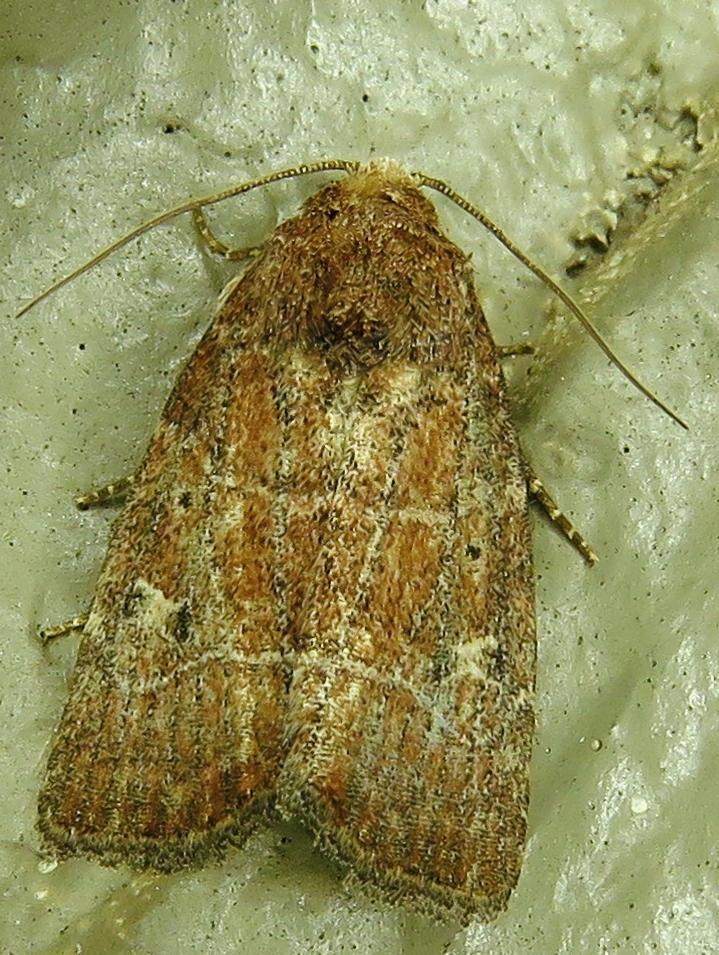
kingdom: Animalia
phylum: Arthropoda
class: Insecta
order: Lepidoptera
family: Noctuidae
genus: Elaphria
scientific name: Elaphria grata
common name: Grateful midget moth
